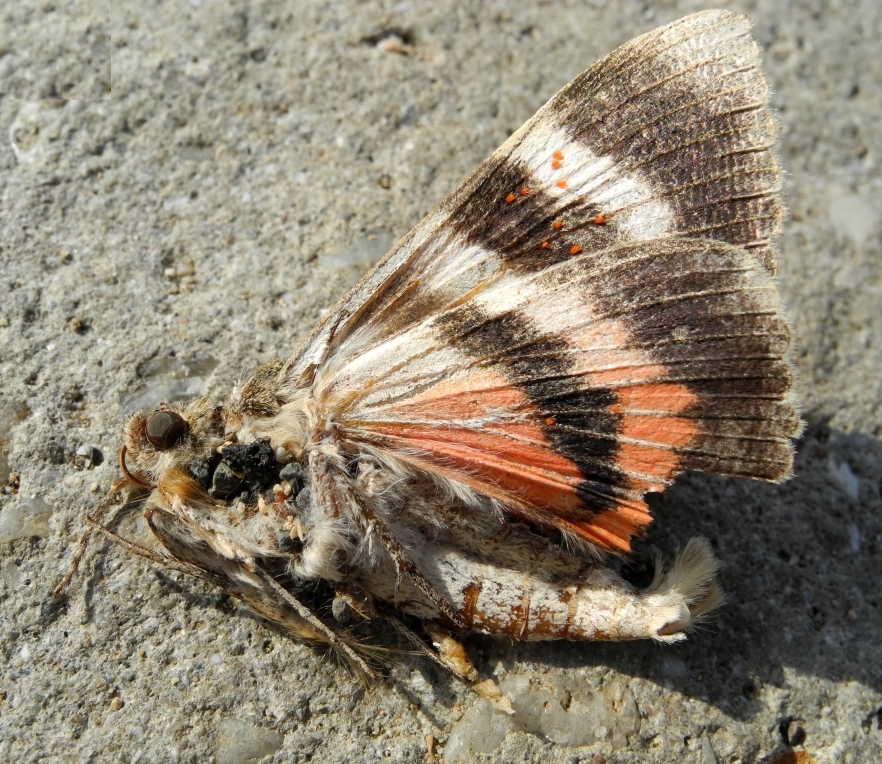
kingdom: Animalia
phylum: Arthropoda
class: Insecta
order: Lepidoptera
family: Erebidae
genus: Catocala
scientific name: Catocala elocata
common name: French red underwing
